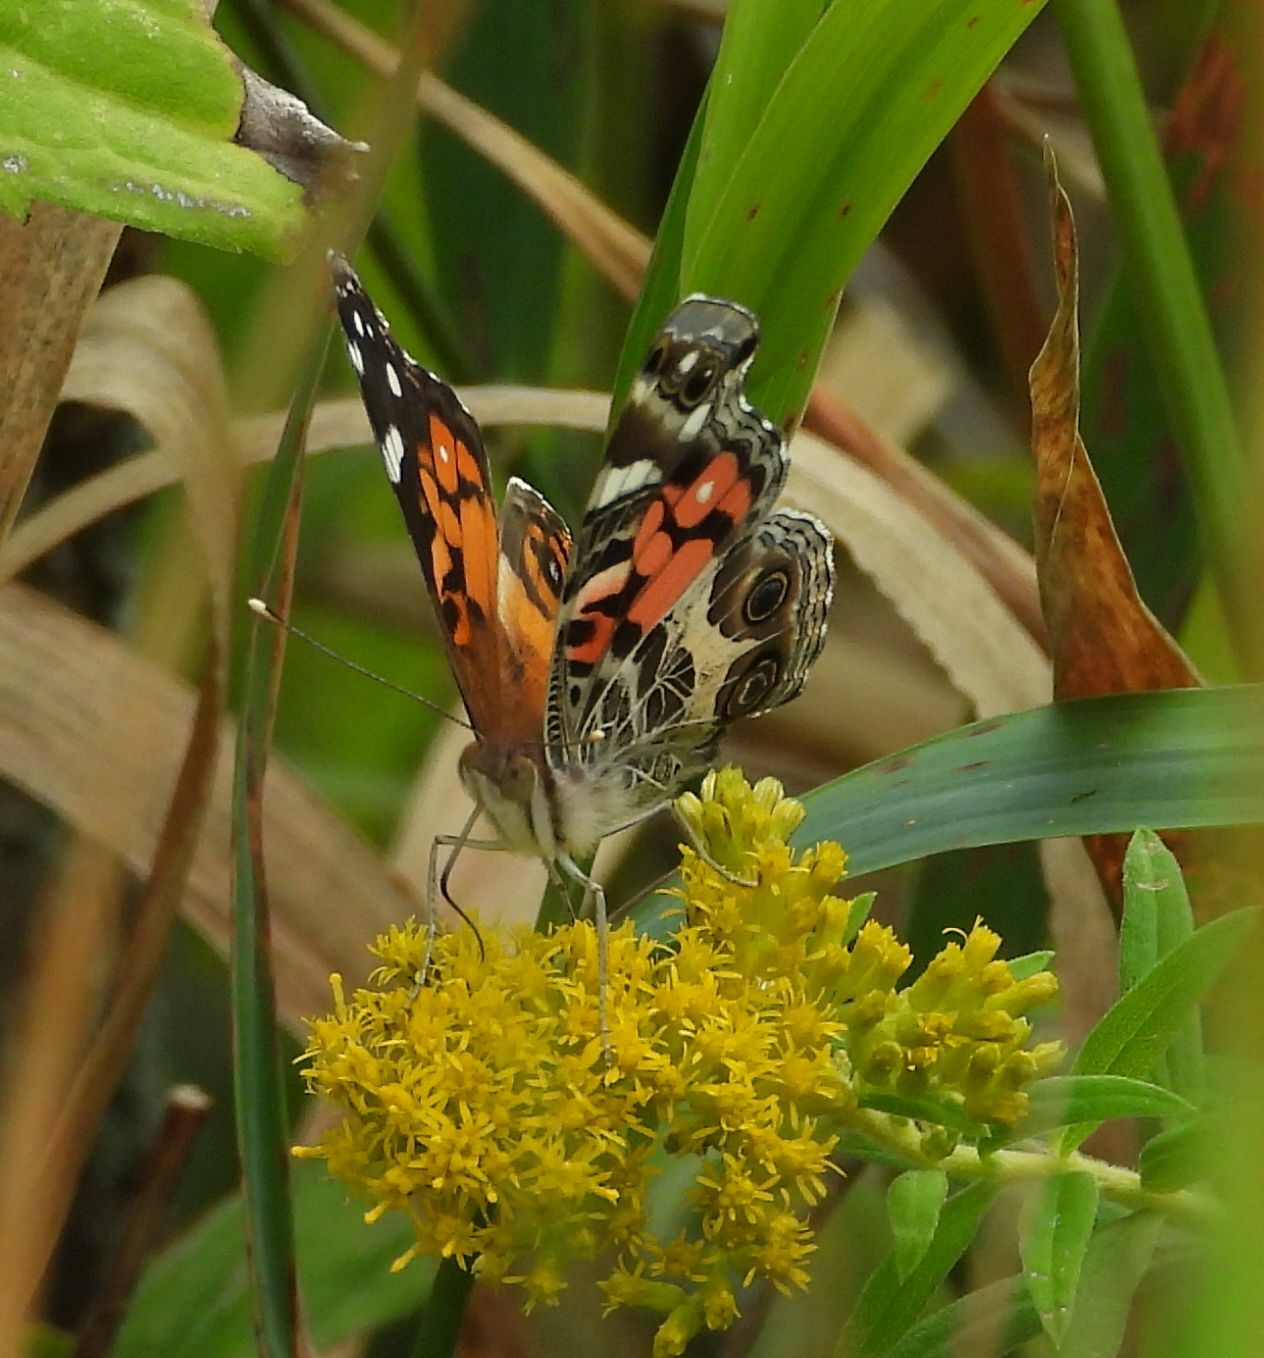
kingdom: Animalia
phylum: Arthropoda
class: Insecta
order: Lepidoptera
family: Nymphalidae
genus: Vanessa
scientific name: Vanessa virginiensis
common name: American lady
